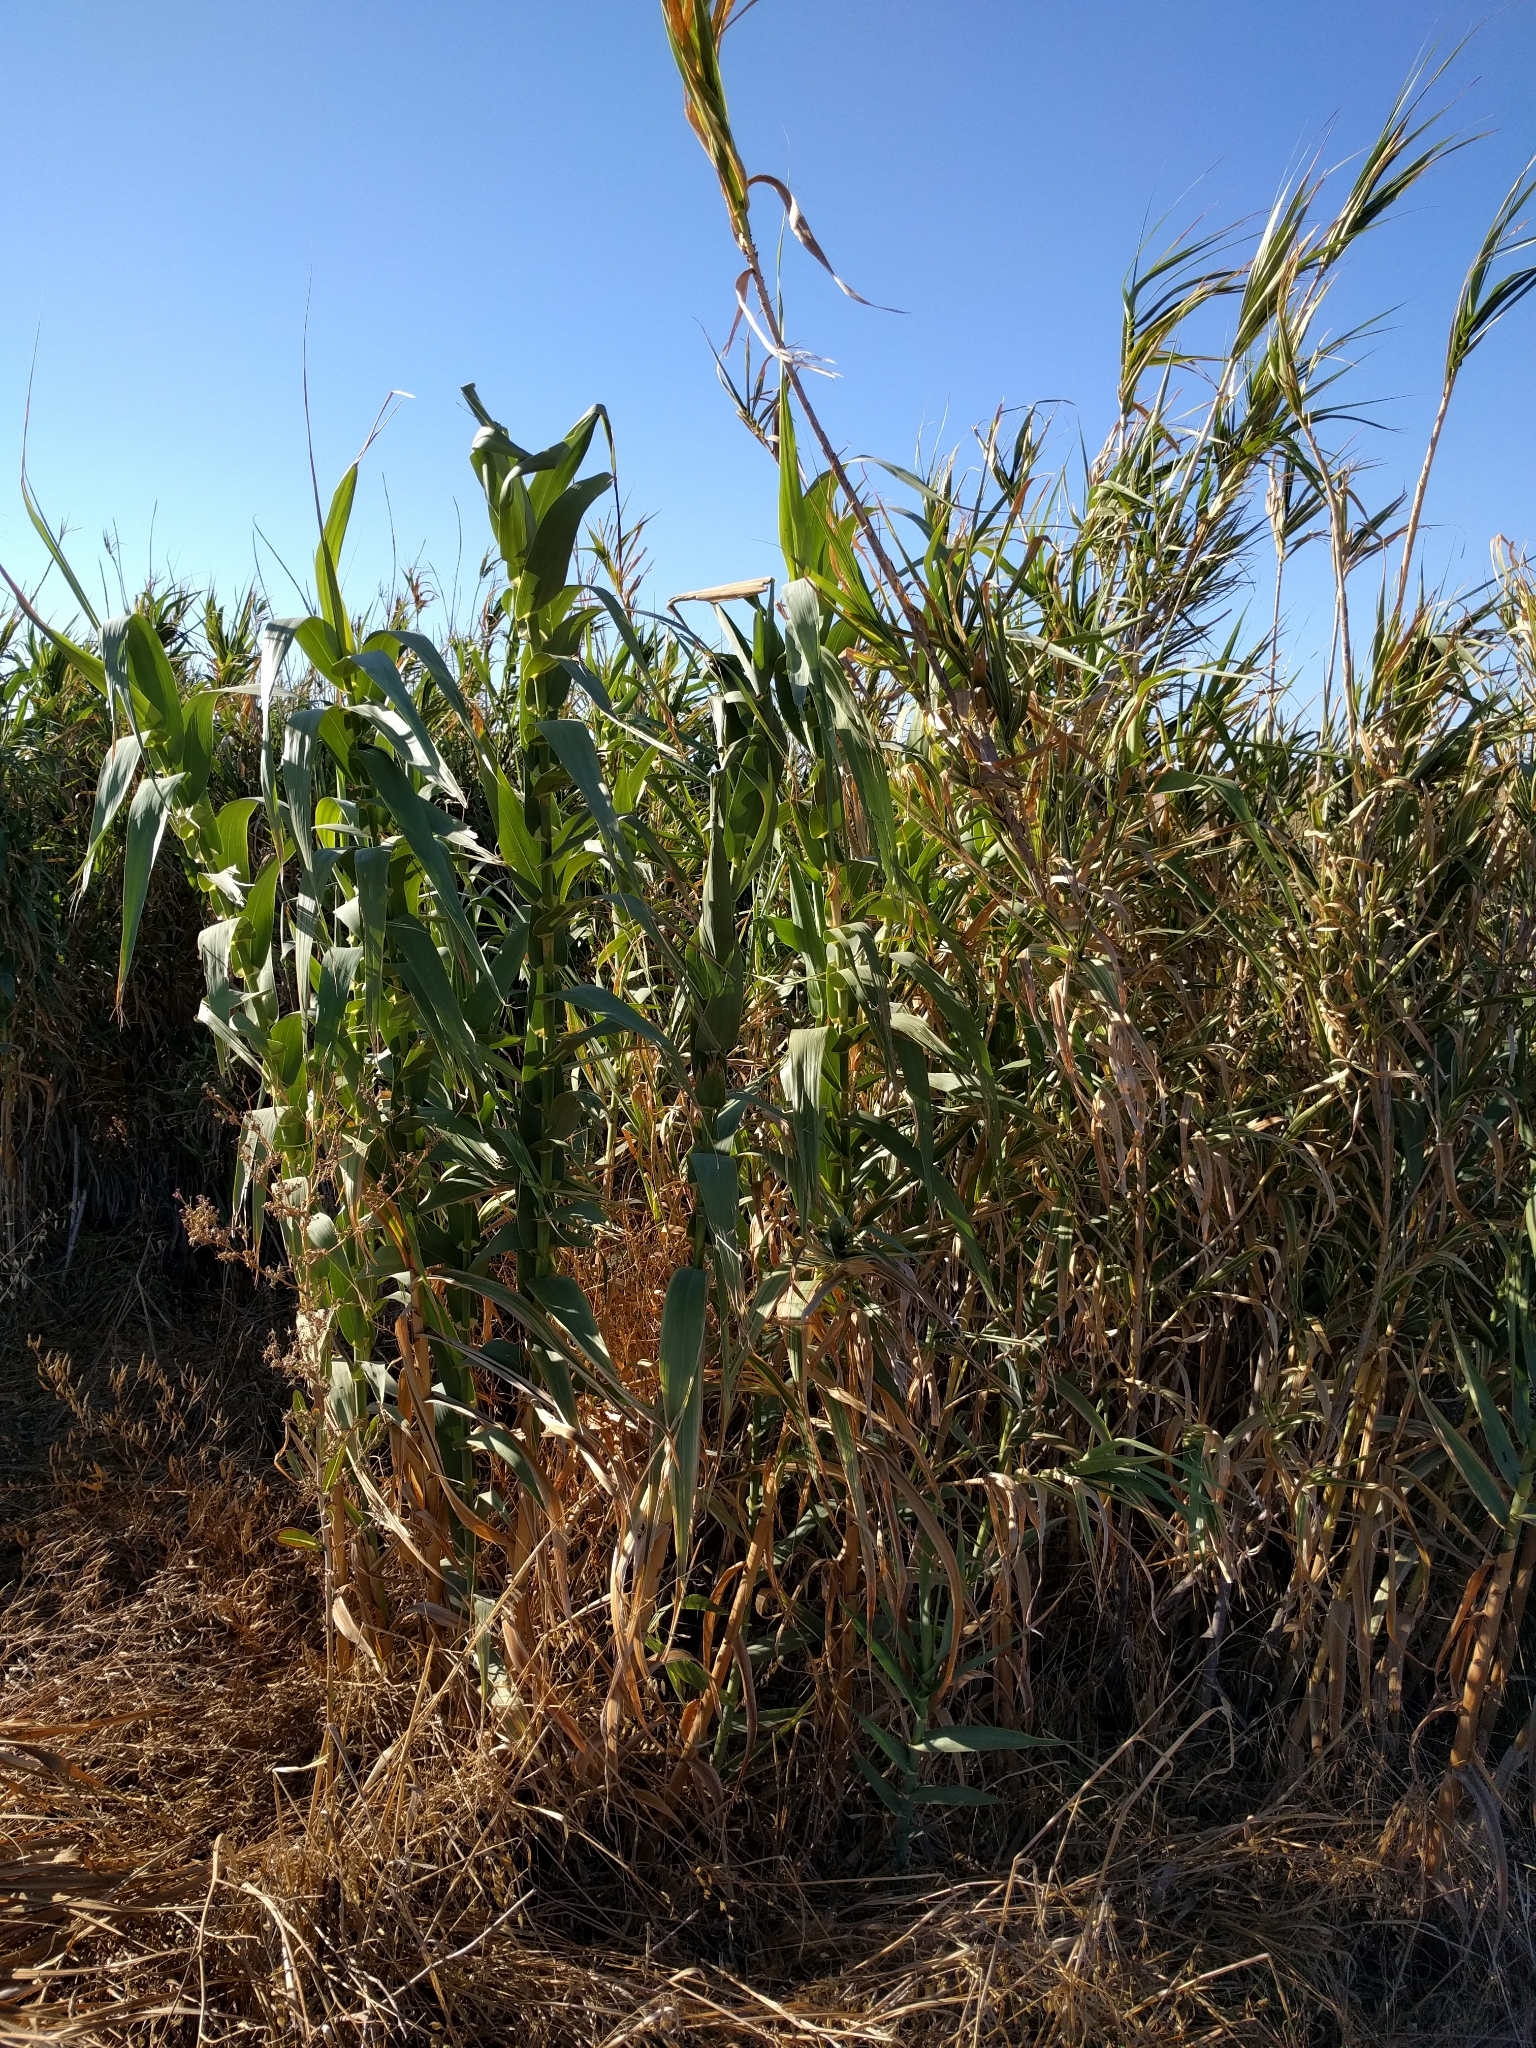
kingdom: Plantae
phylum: Tracheophyta
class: Liliopsida
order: Poales
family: Poaceae
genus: Arundo
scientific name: Arundo donax
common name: Giant reed
